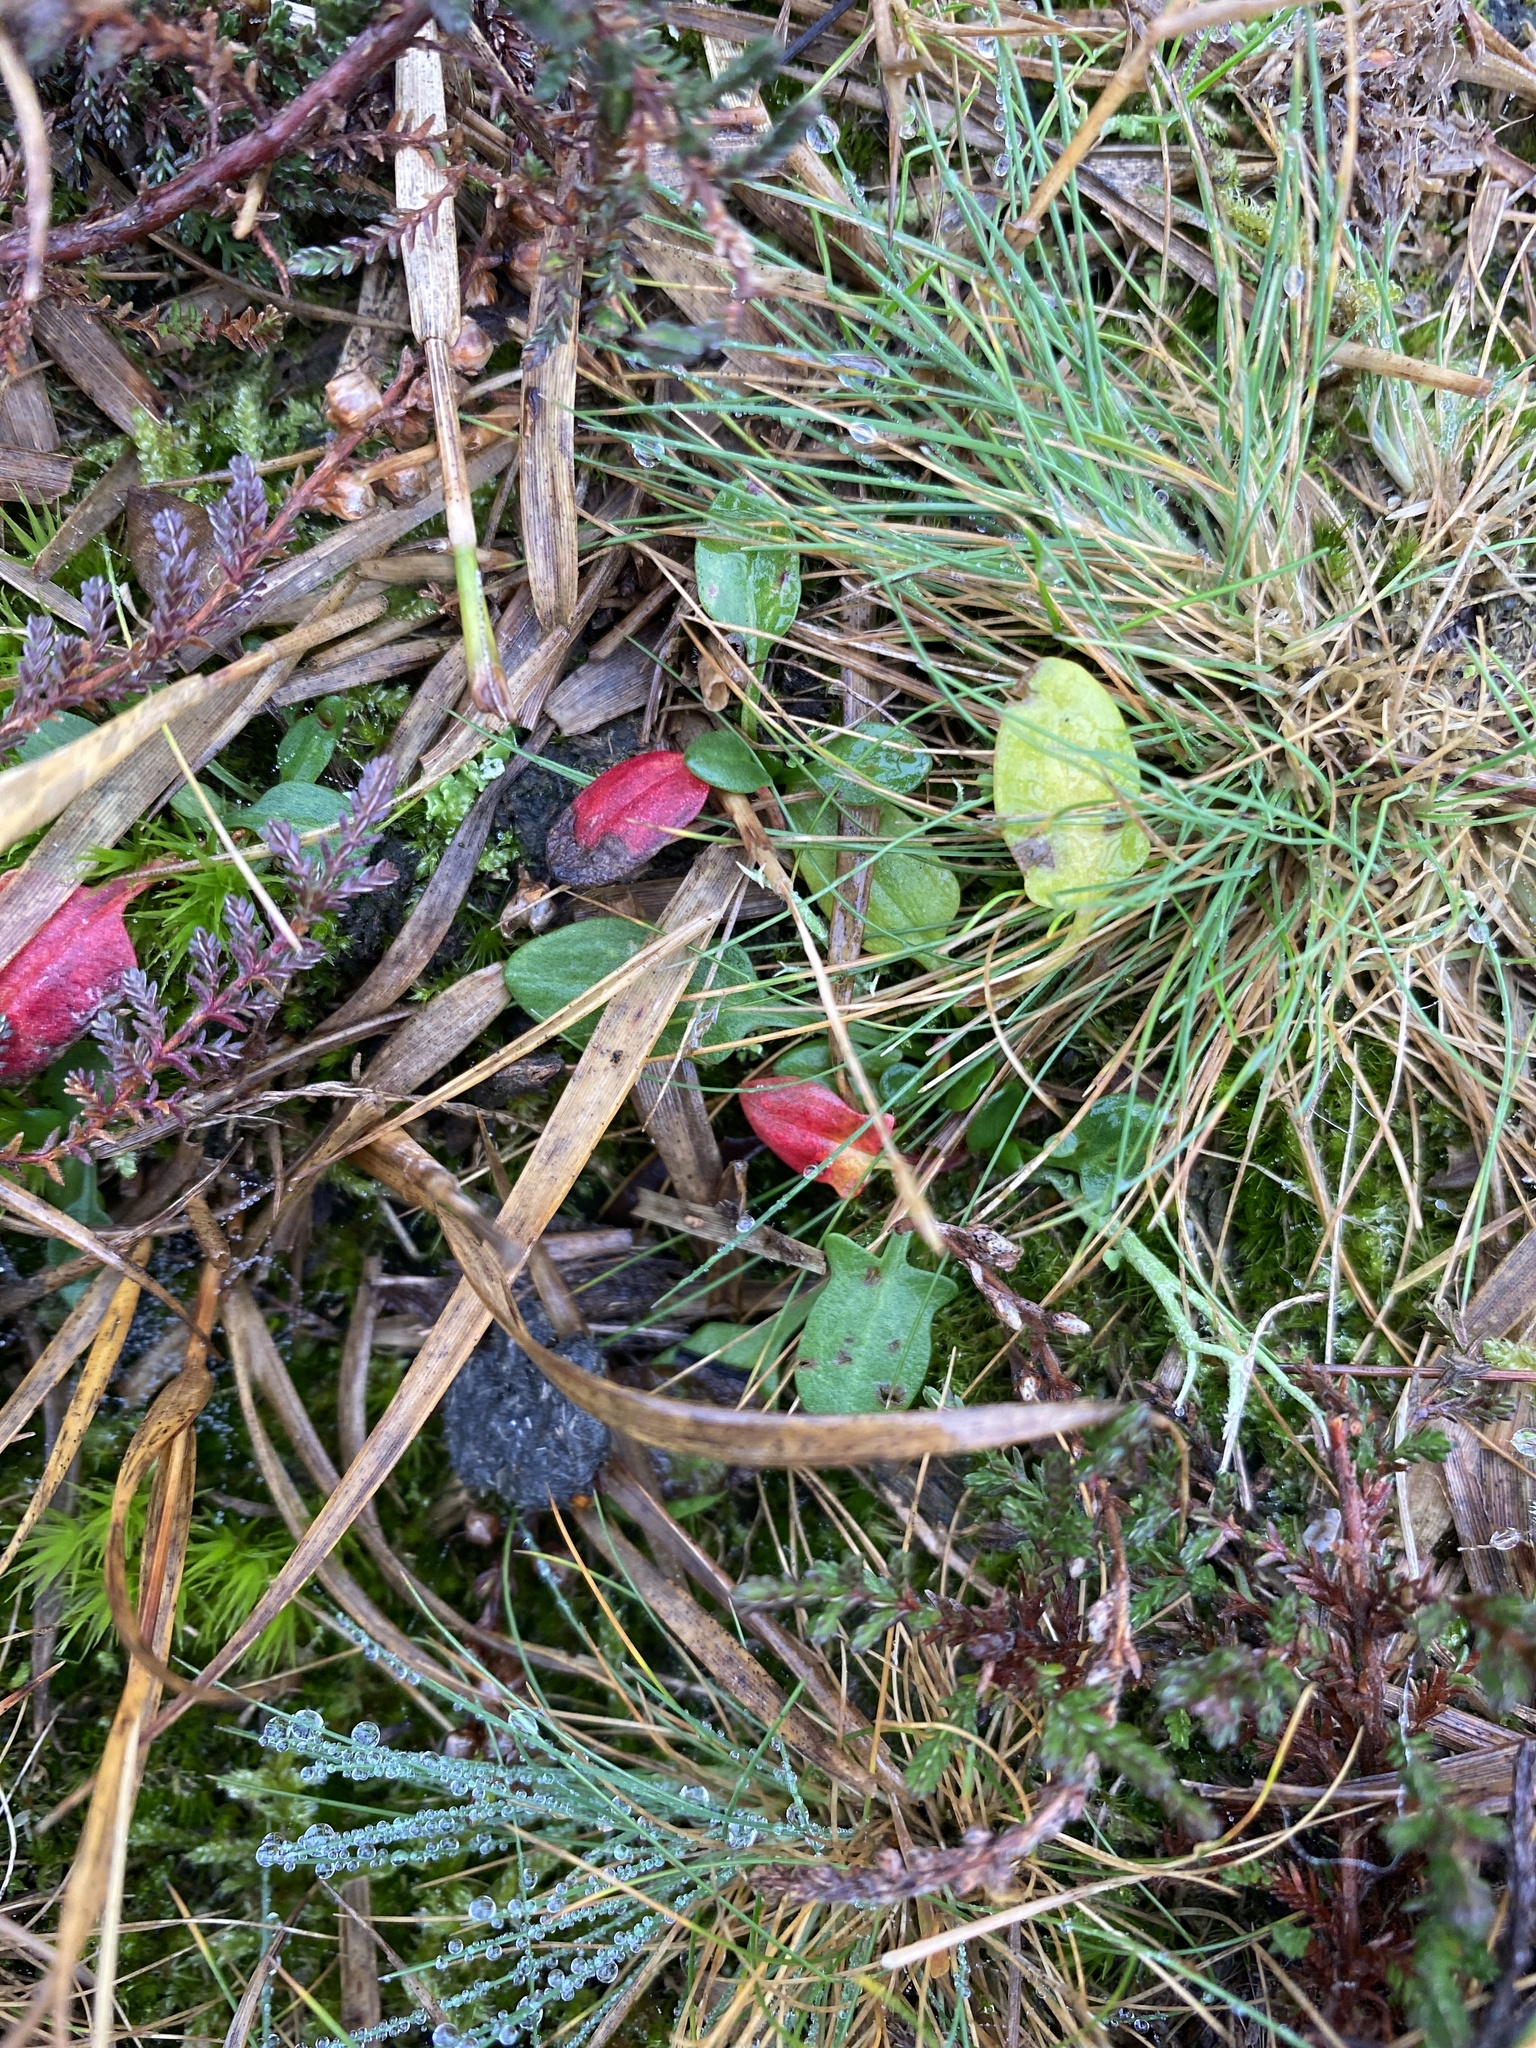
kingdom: Plantae
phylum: Tracheophyta
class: Magnoliopsida
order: Caryophyllales
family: Polygonaceae
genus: Rumex
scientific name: Rumex acetosella
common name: Common sheep sorrel
